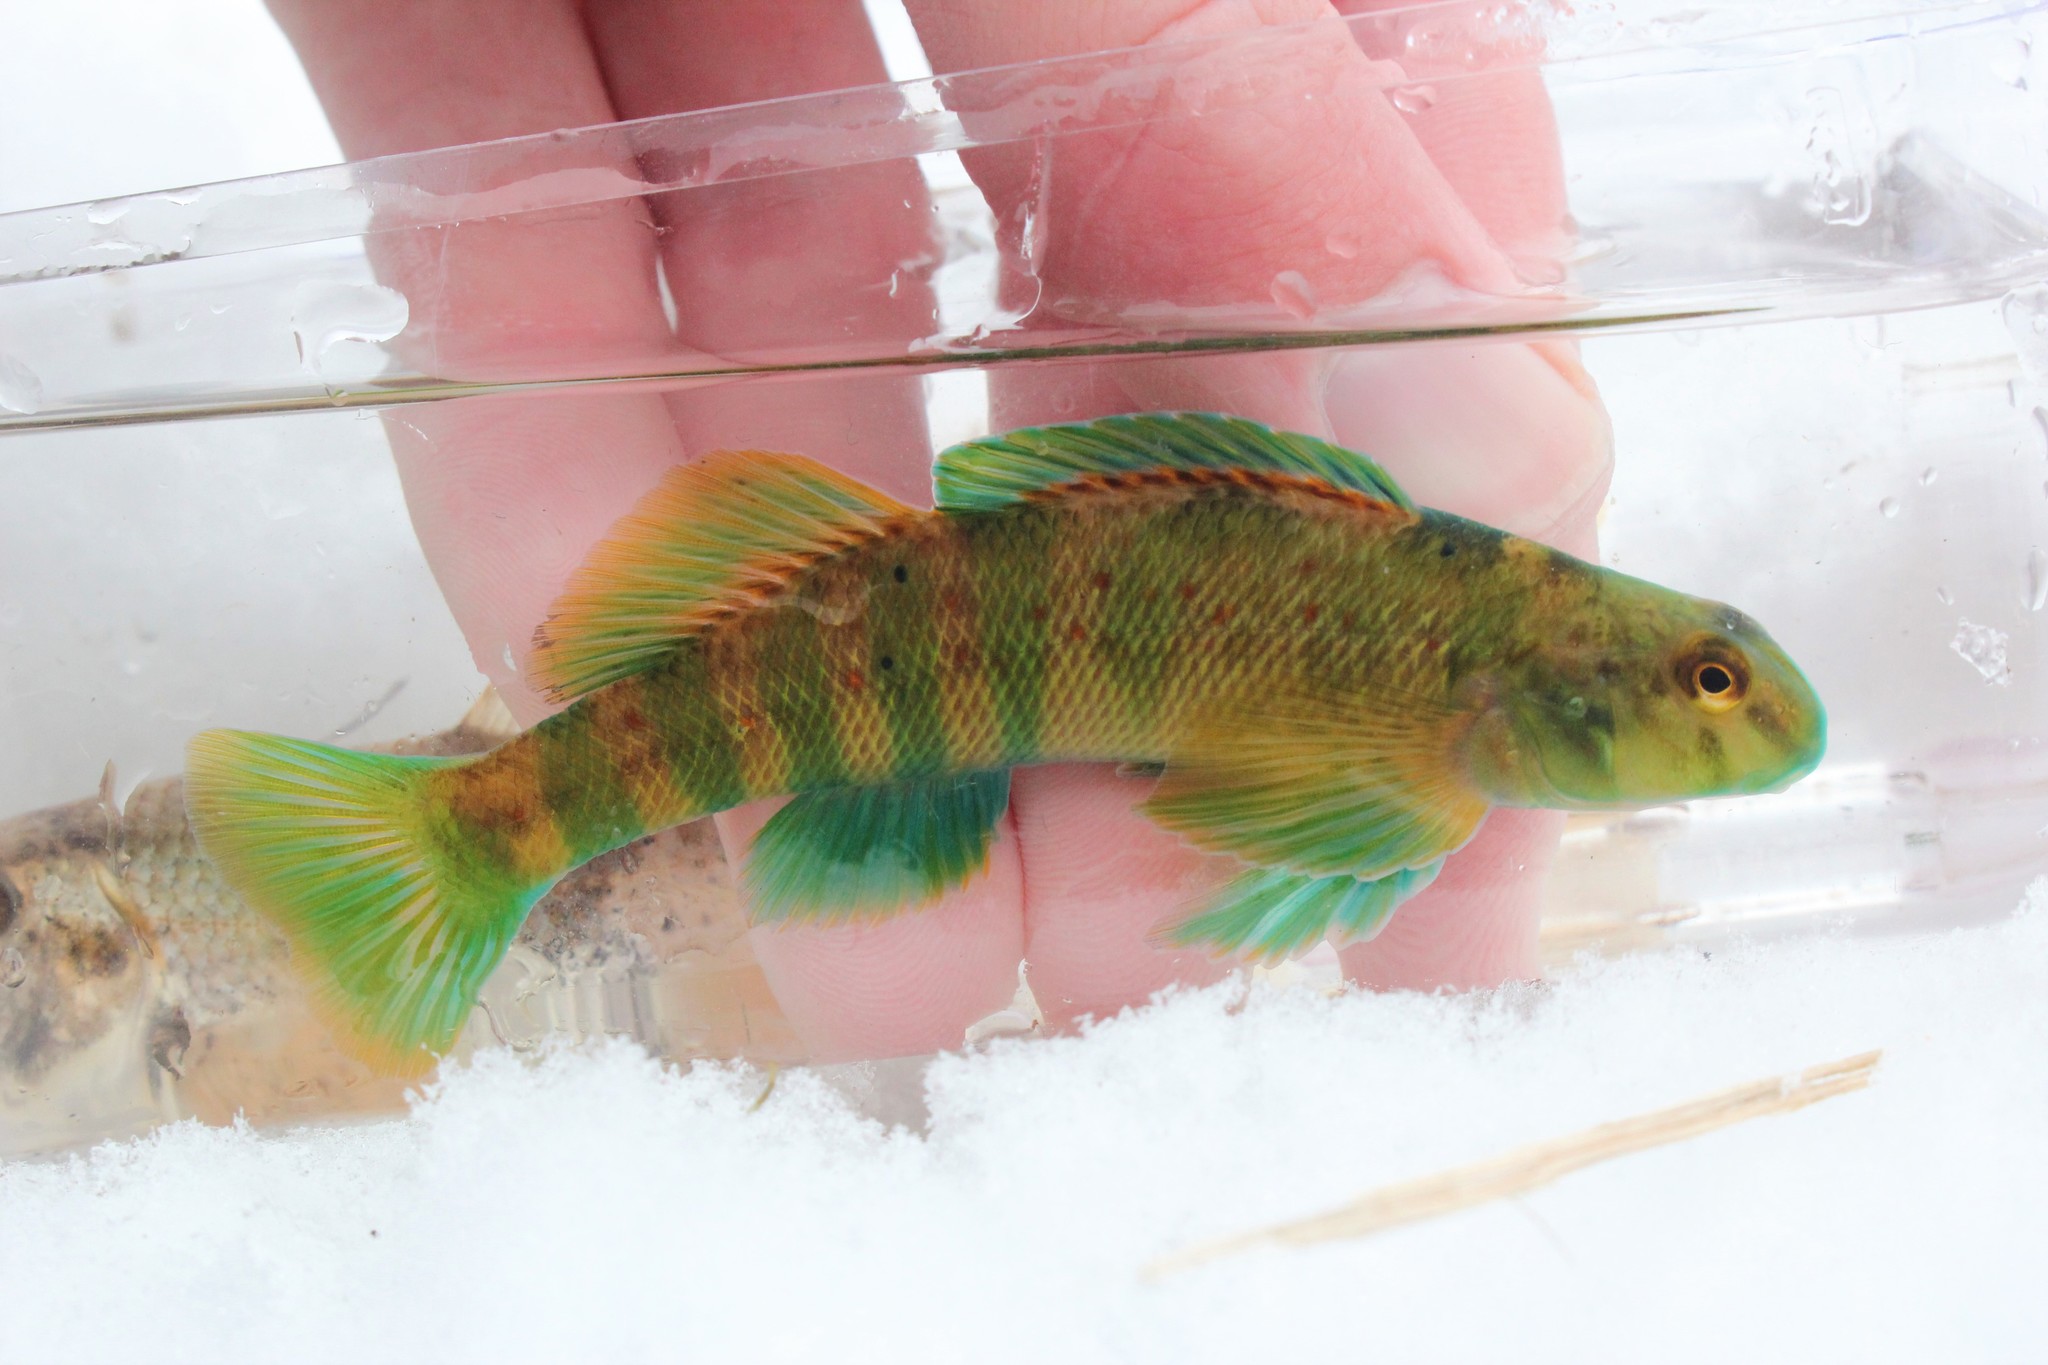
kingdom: Animalia
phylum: Chordata
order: Perciformes
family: Percidae
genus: Etheostoma
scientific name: Etheostoma blennioides
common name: Greenside darter
